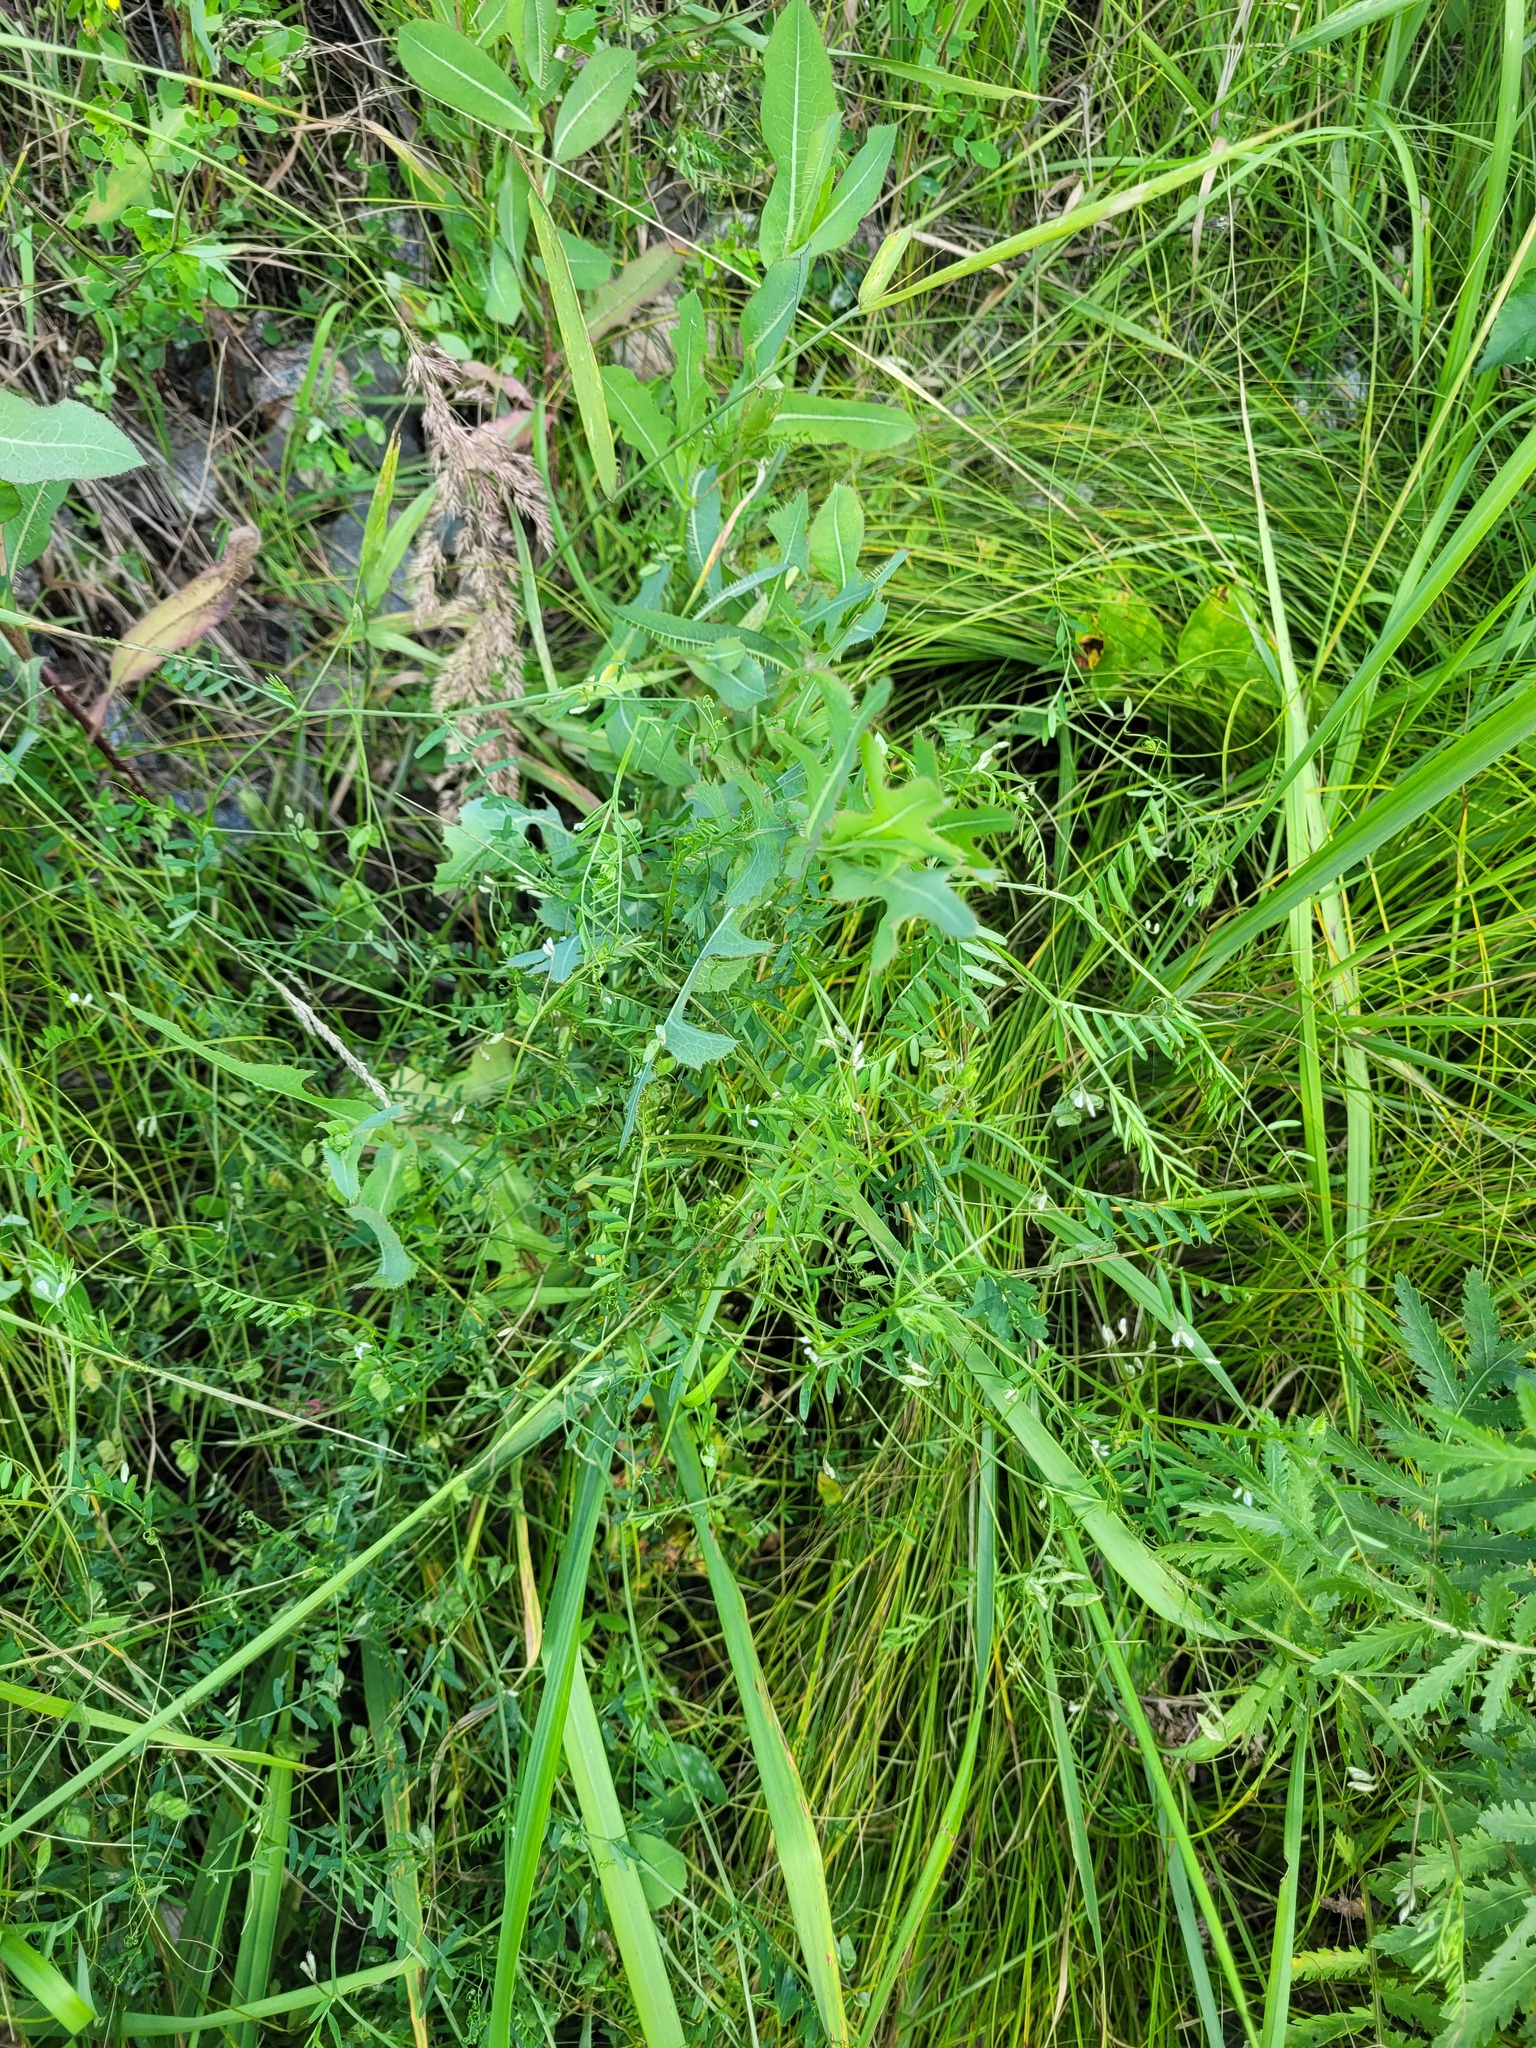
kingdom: Plantae
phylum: Tracheophyta
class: Magnoliopsida
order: Fabales
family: Fabaceae
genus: Vicia
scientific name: Vicia hirsuta
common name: Tiny vetch
